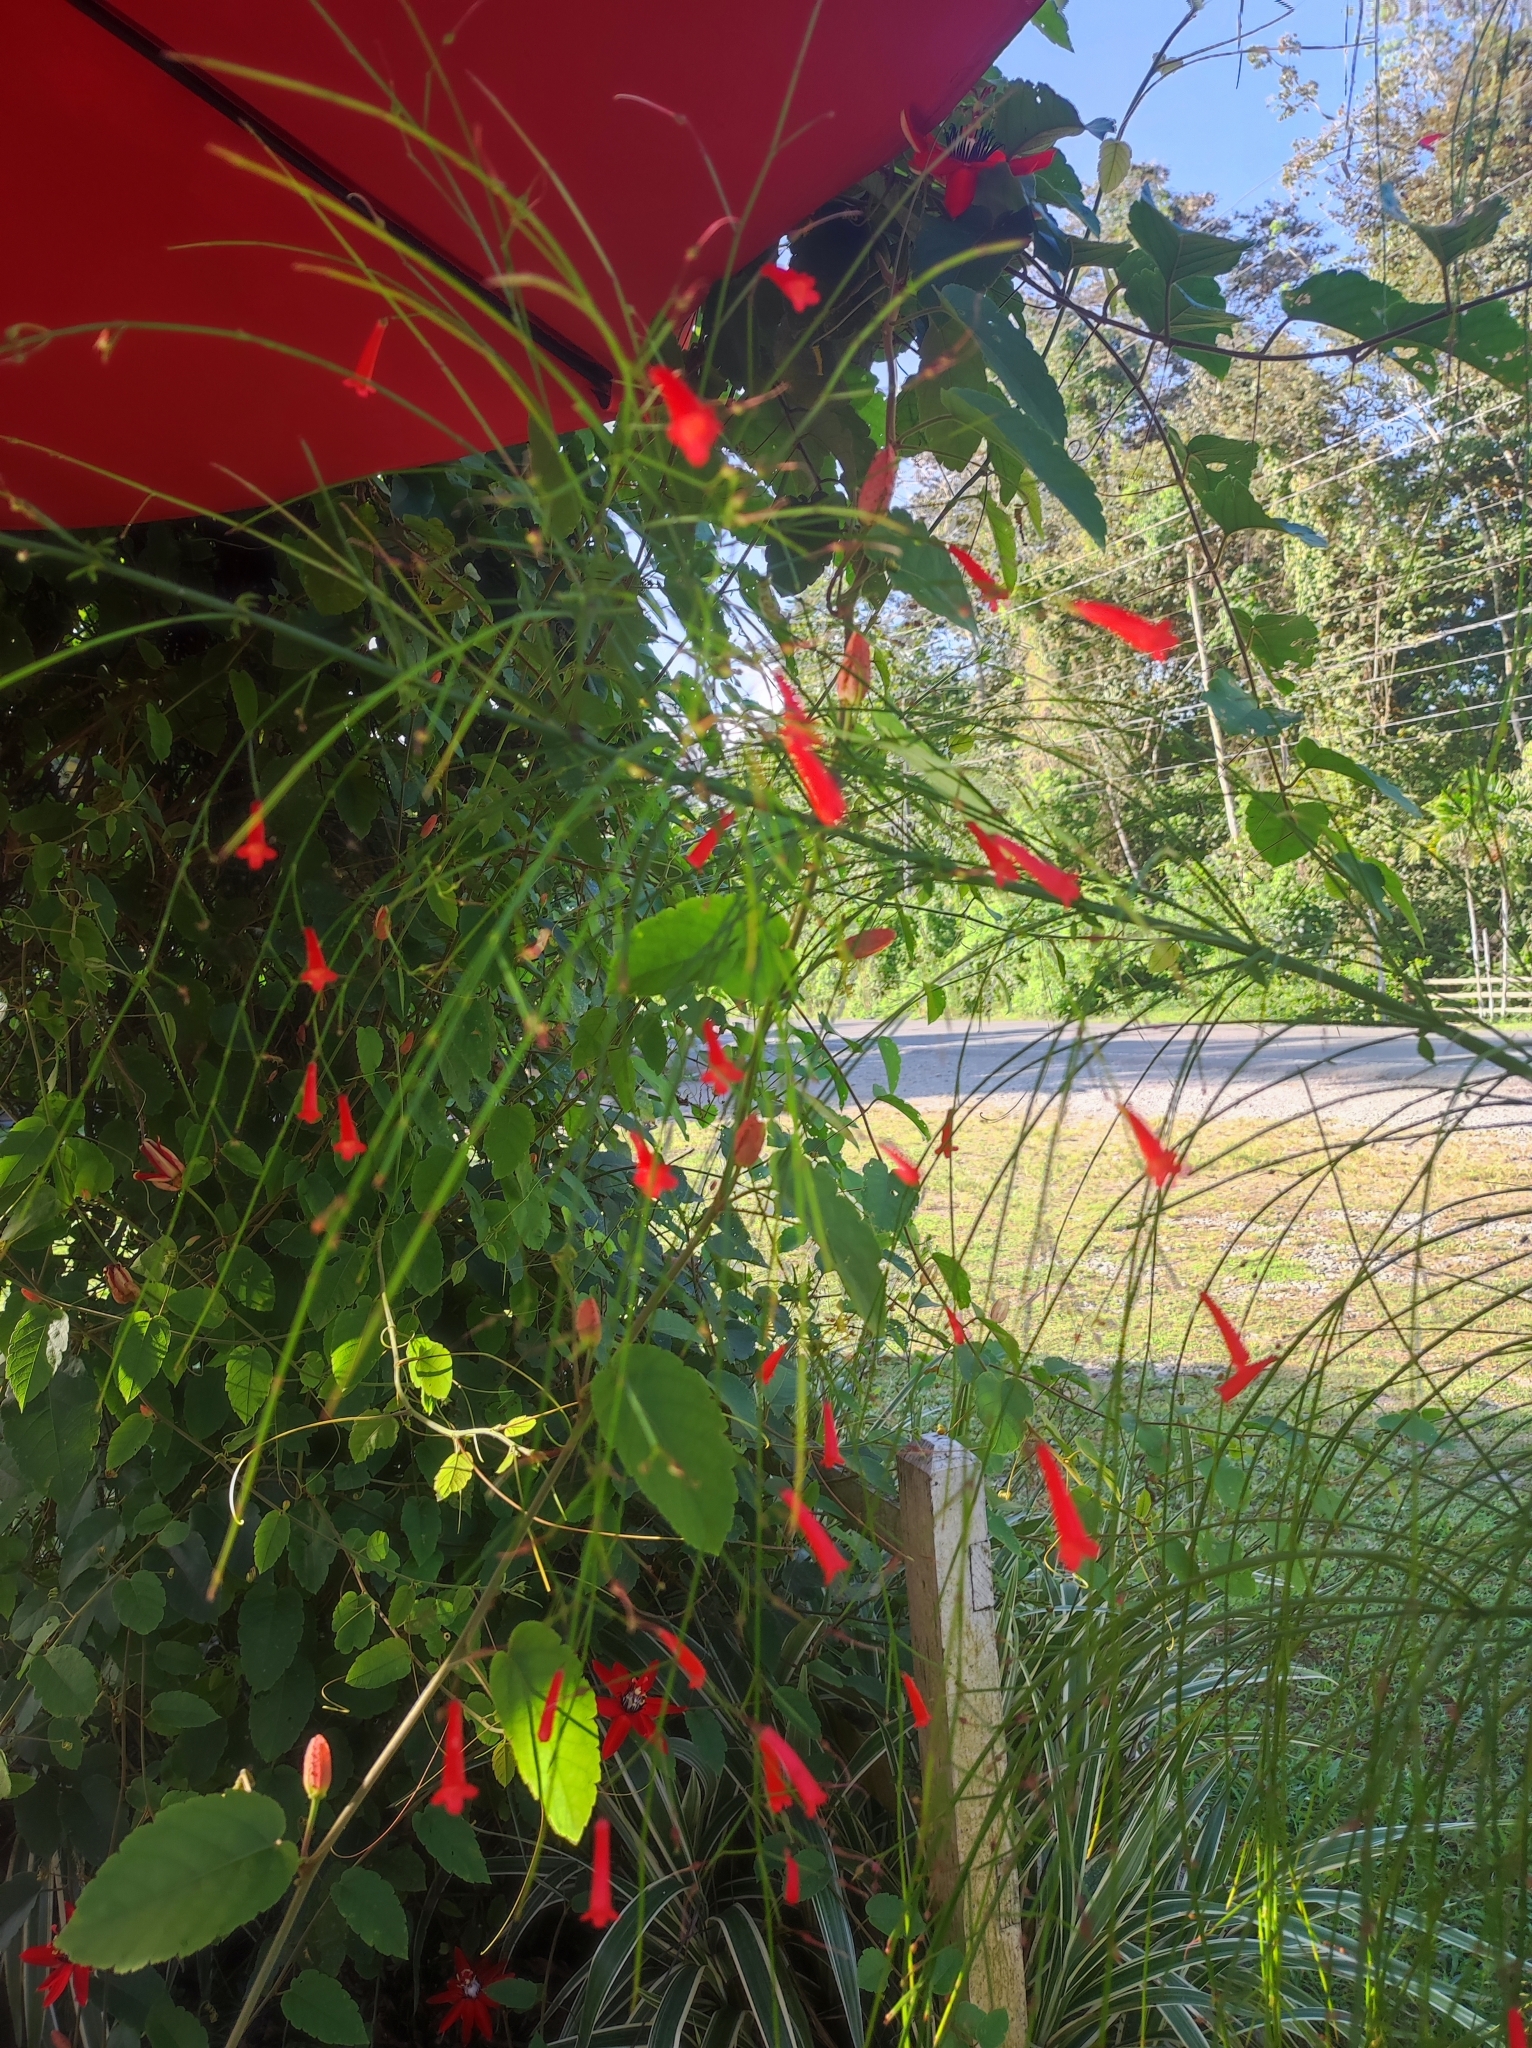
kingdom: Plantae
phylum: Tracheophyta
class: Magnoliopsida
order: Lamiales
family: Plantaginaceae
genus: Russelia
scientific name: Russelia equisetiformis
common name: Fountainbush
